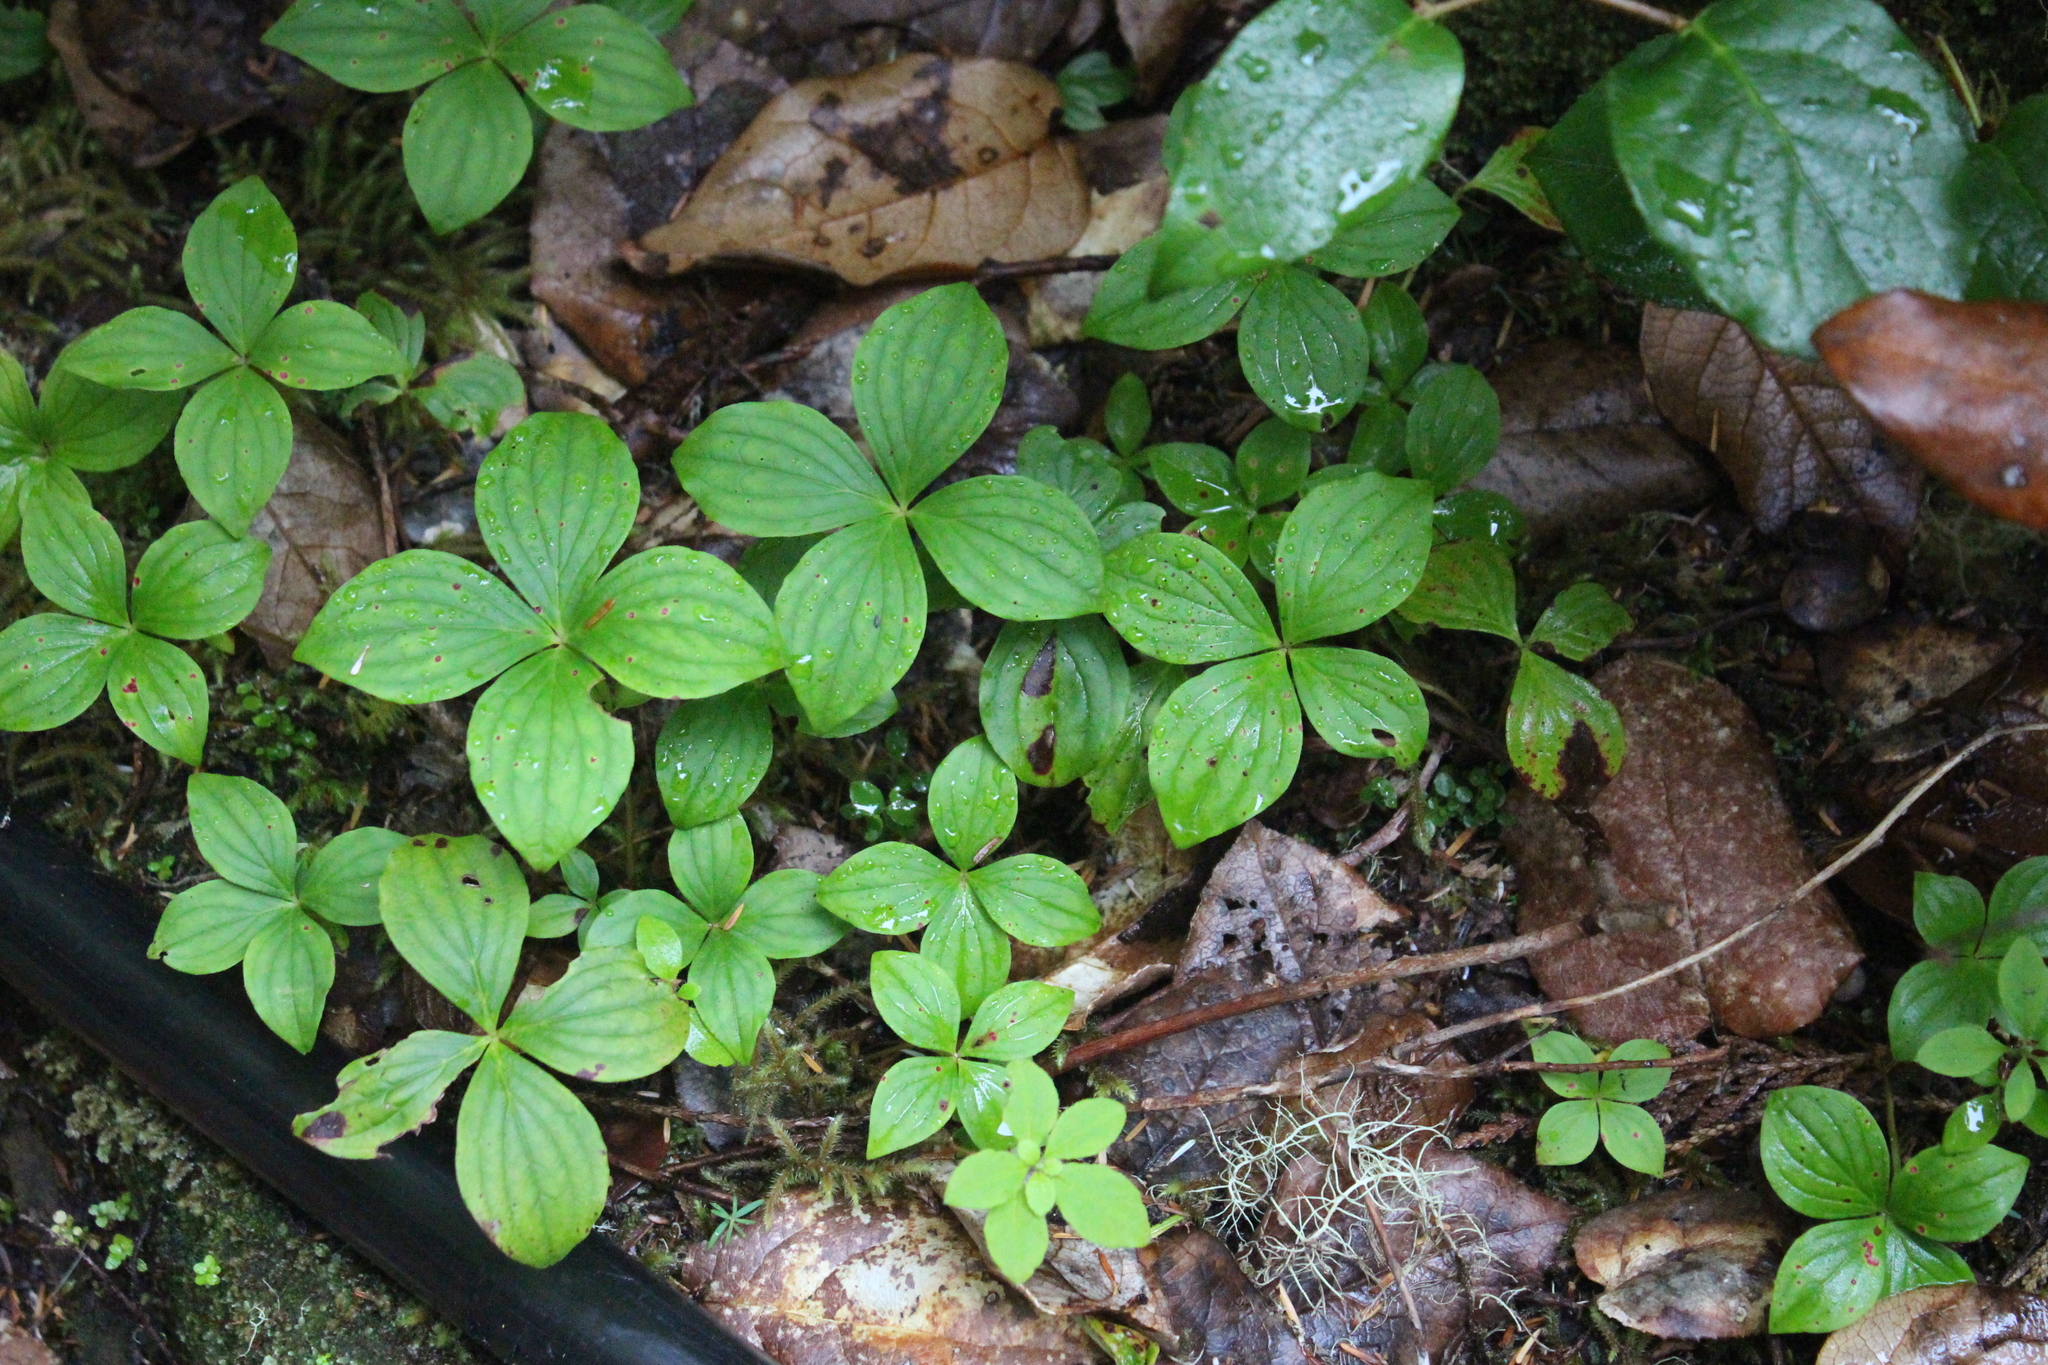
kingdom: Plantae
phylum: Tracheophyta
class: Magnoliopsida
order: Cornales
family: Cornaceae
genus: Cornus
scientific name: Cornus unalaschkensis
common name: Alaska bunchberry
